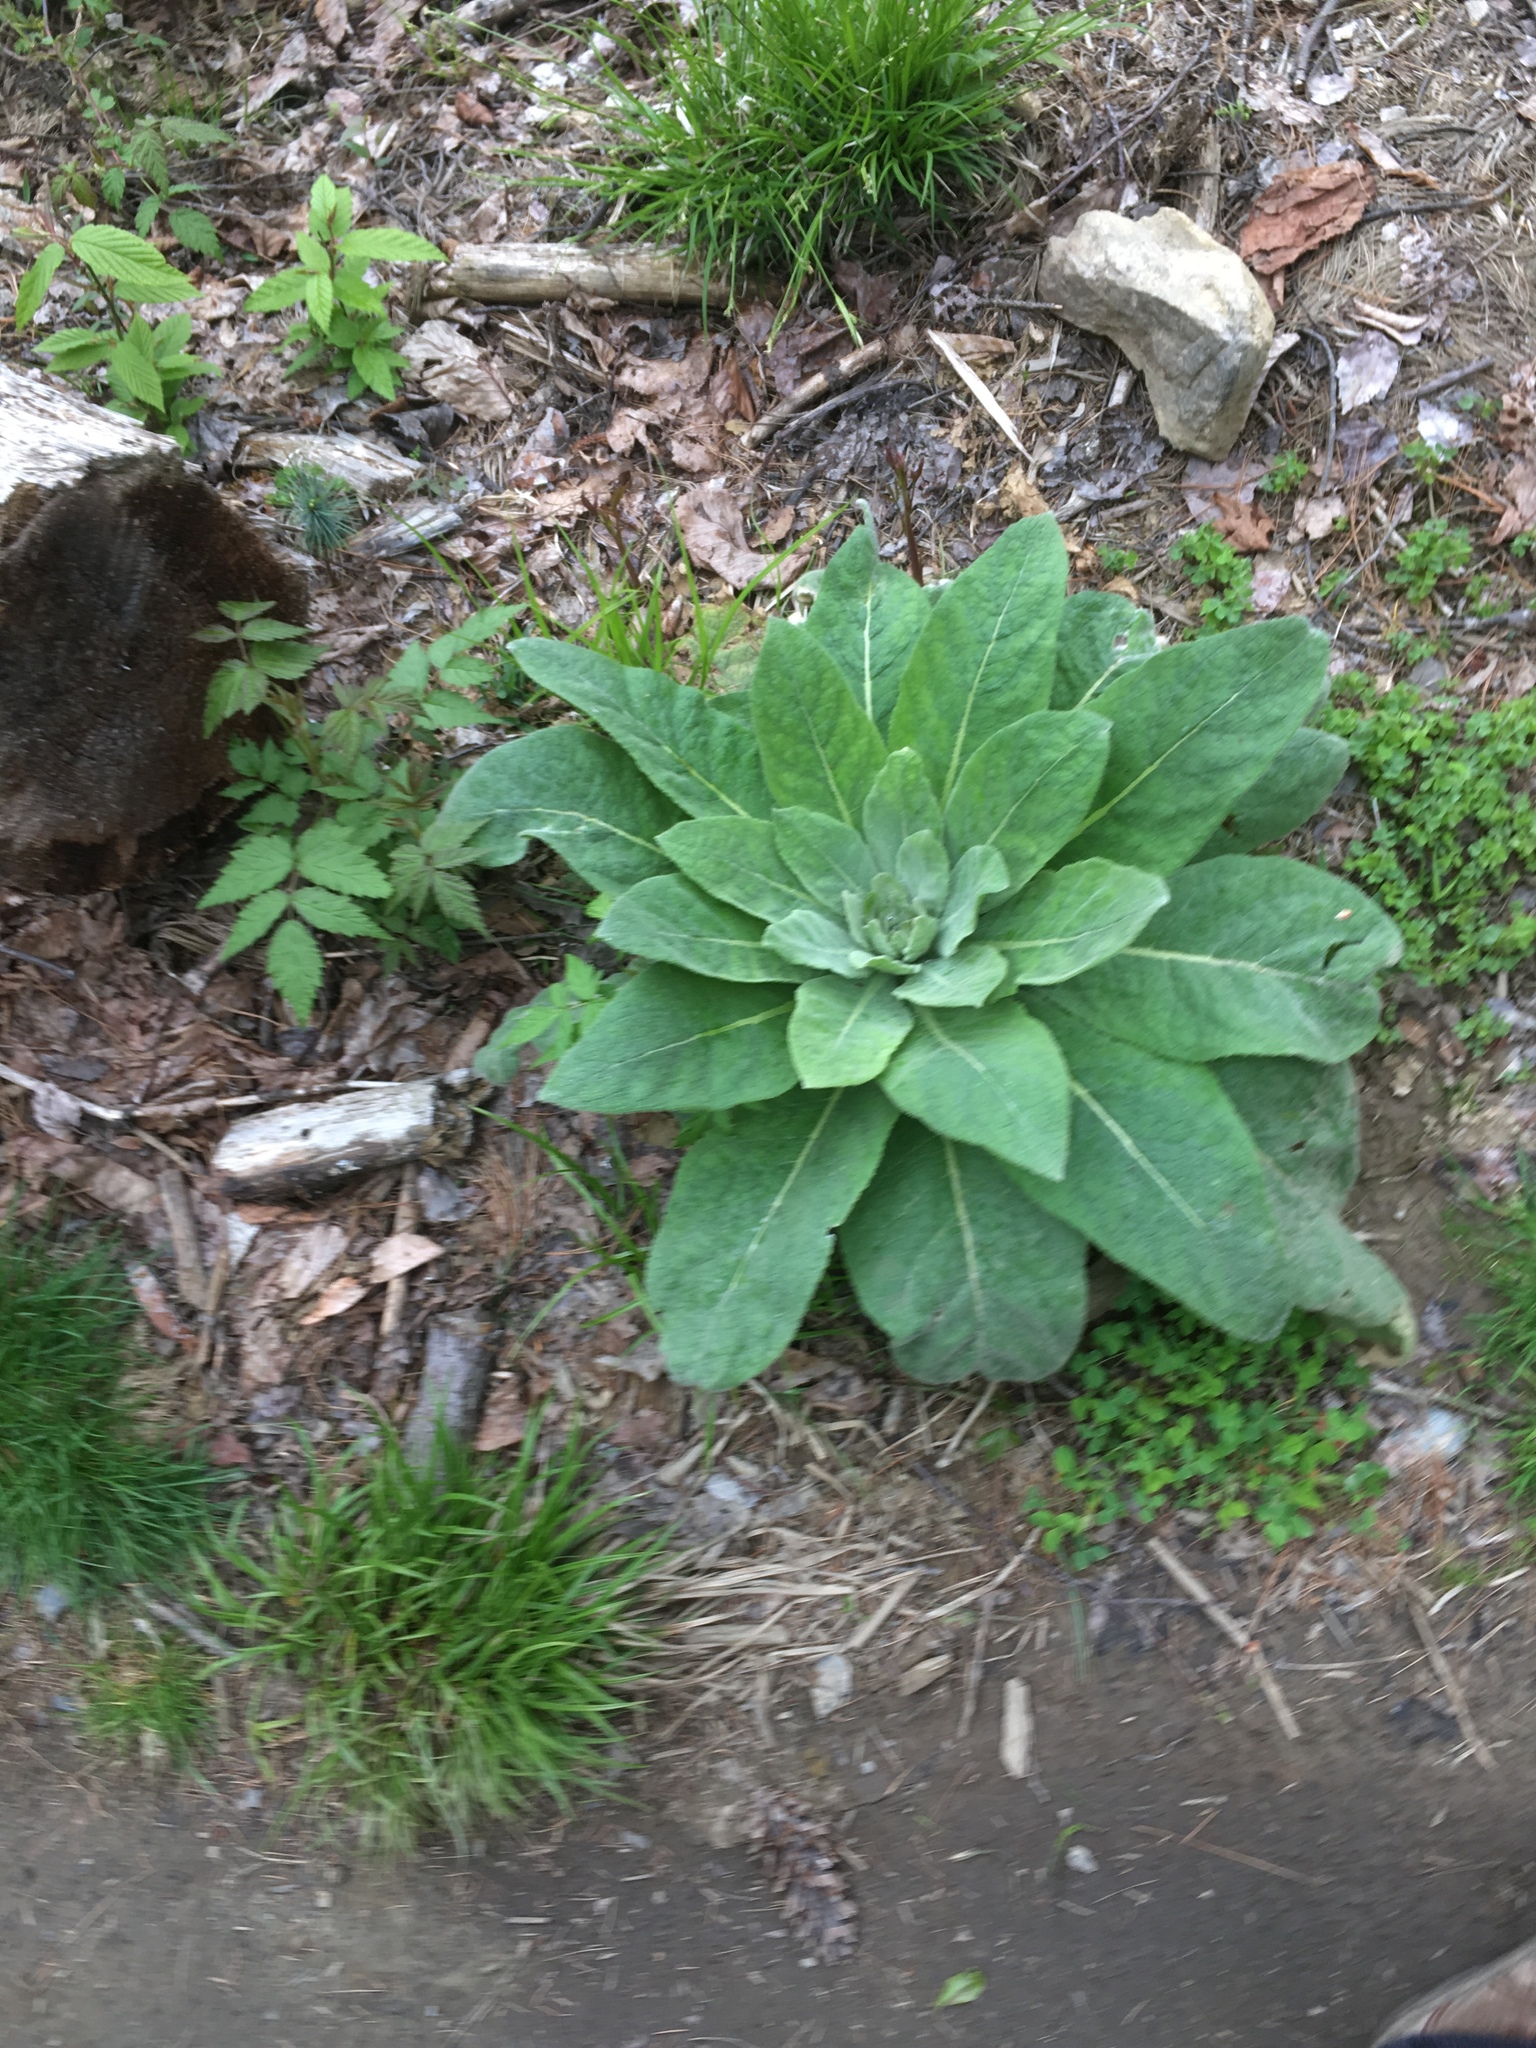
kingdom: Plantae
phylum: Tracheophyta
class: Magnoliopsida
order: Lamiales
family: Scrophulariaceae
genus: Verbascum
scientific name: Verbascum thapsus
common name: Common mullein
